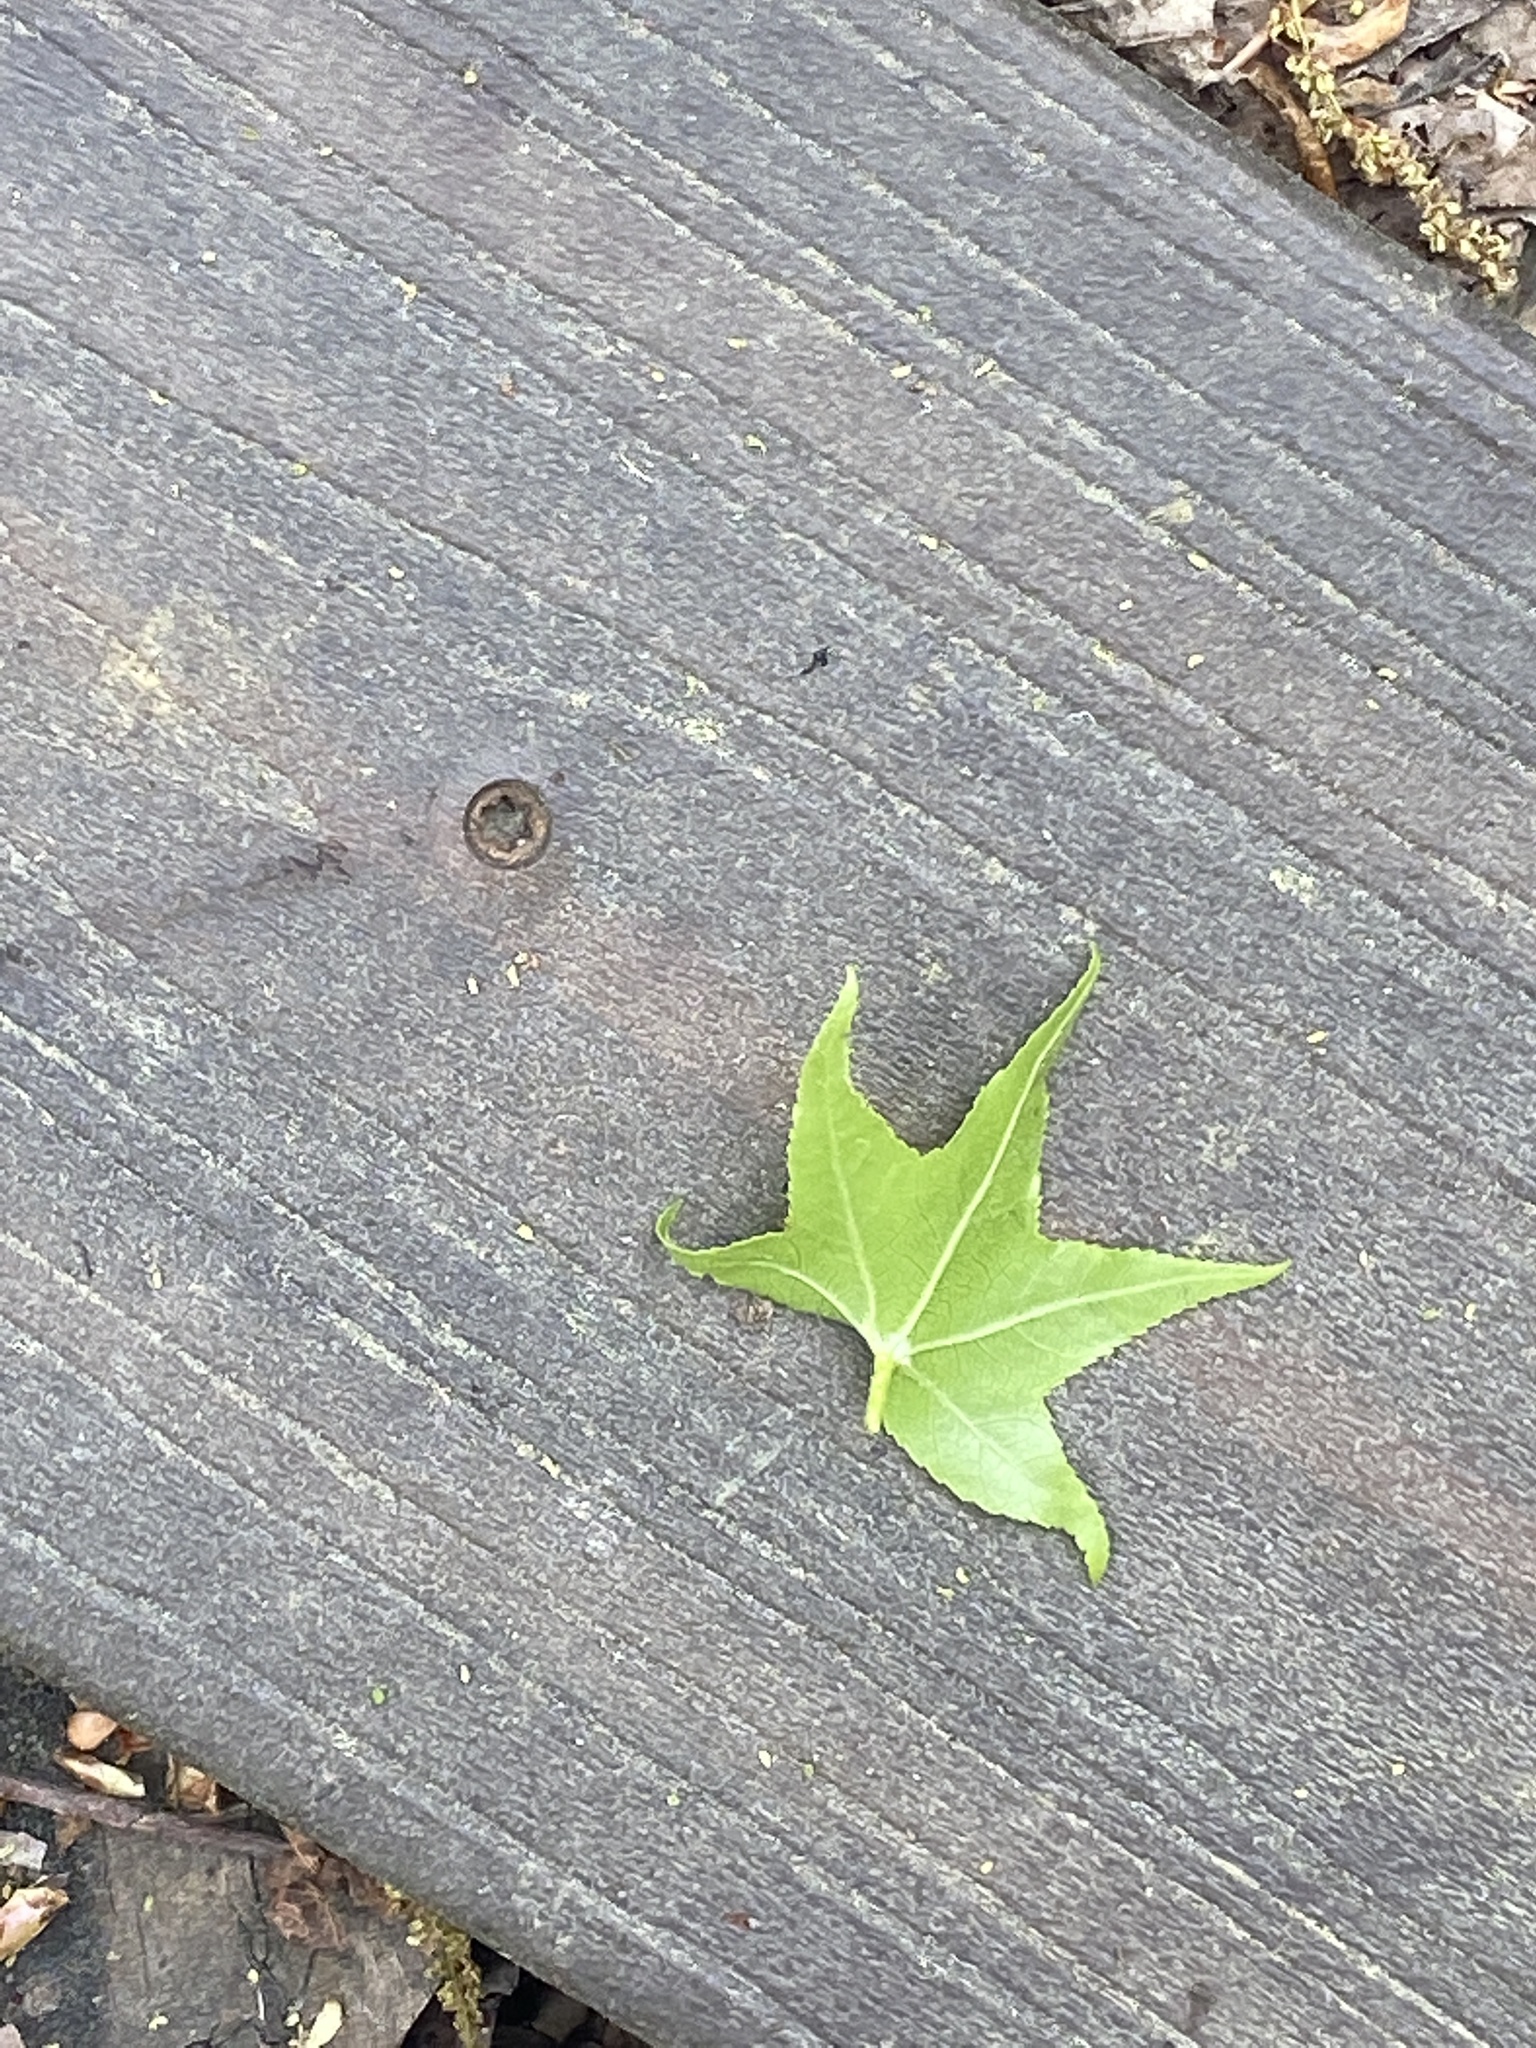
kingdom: Plantae
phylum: Tracheophyta
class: Magnoliopsida
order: Saxifragales
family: Altingiaceae
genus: Liquidambar
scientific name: Liquidambar styraciflua
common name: Sweet gum
